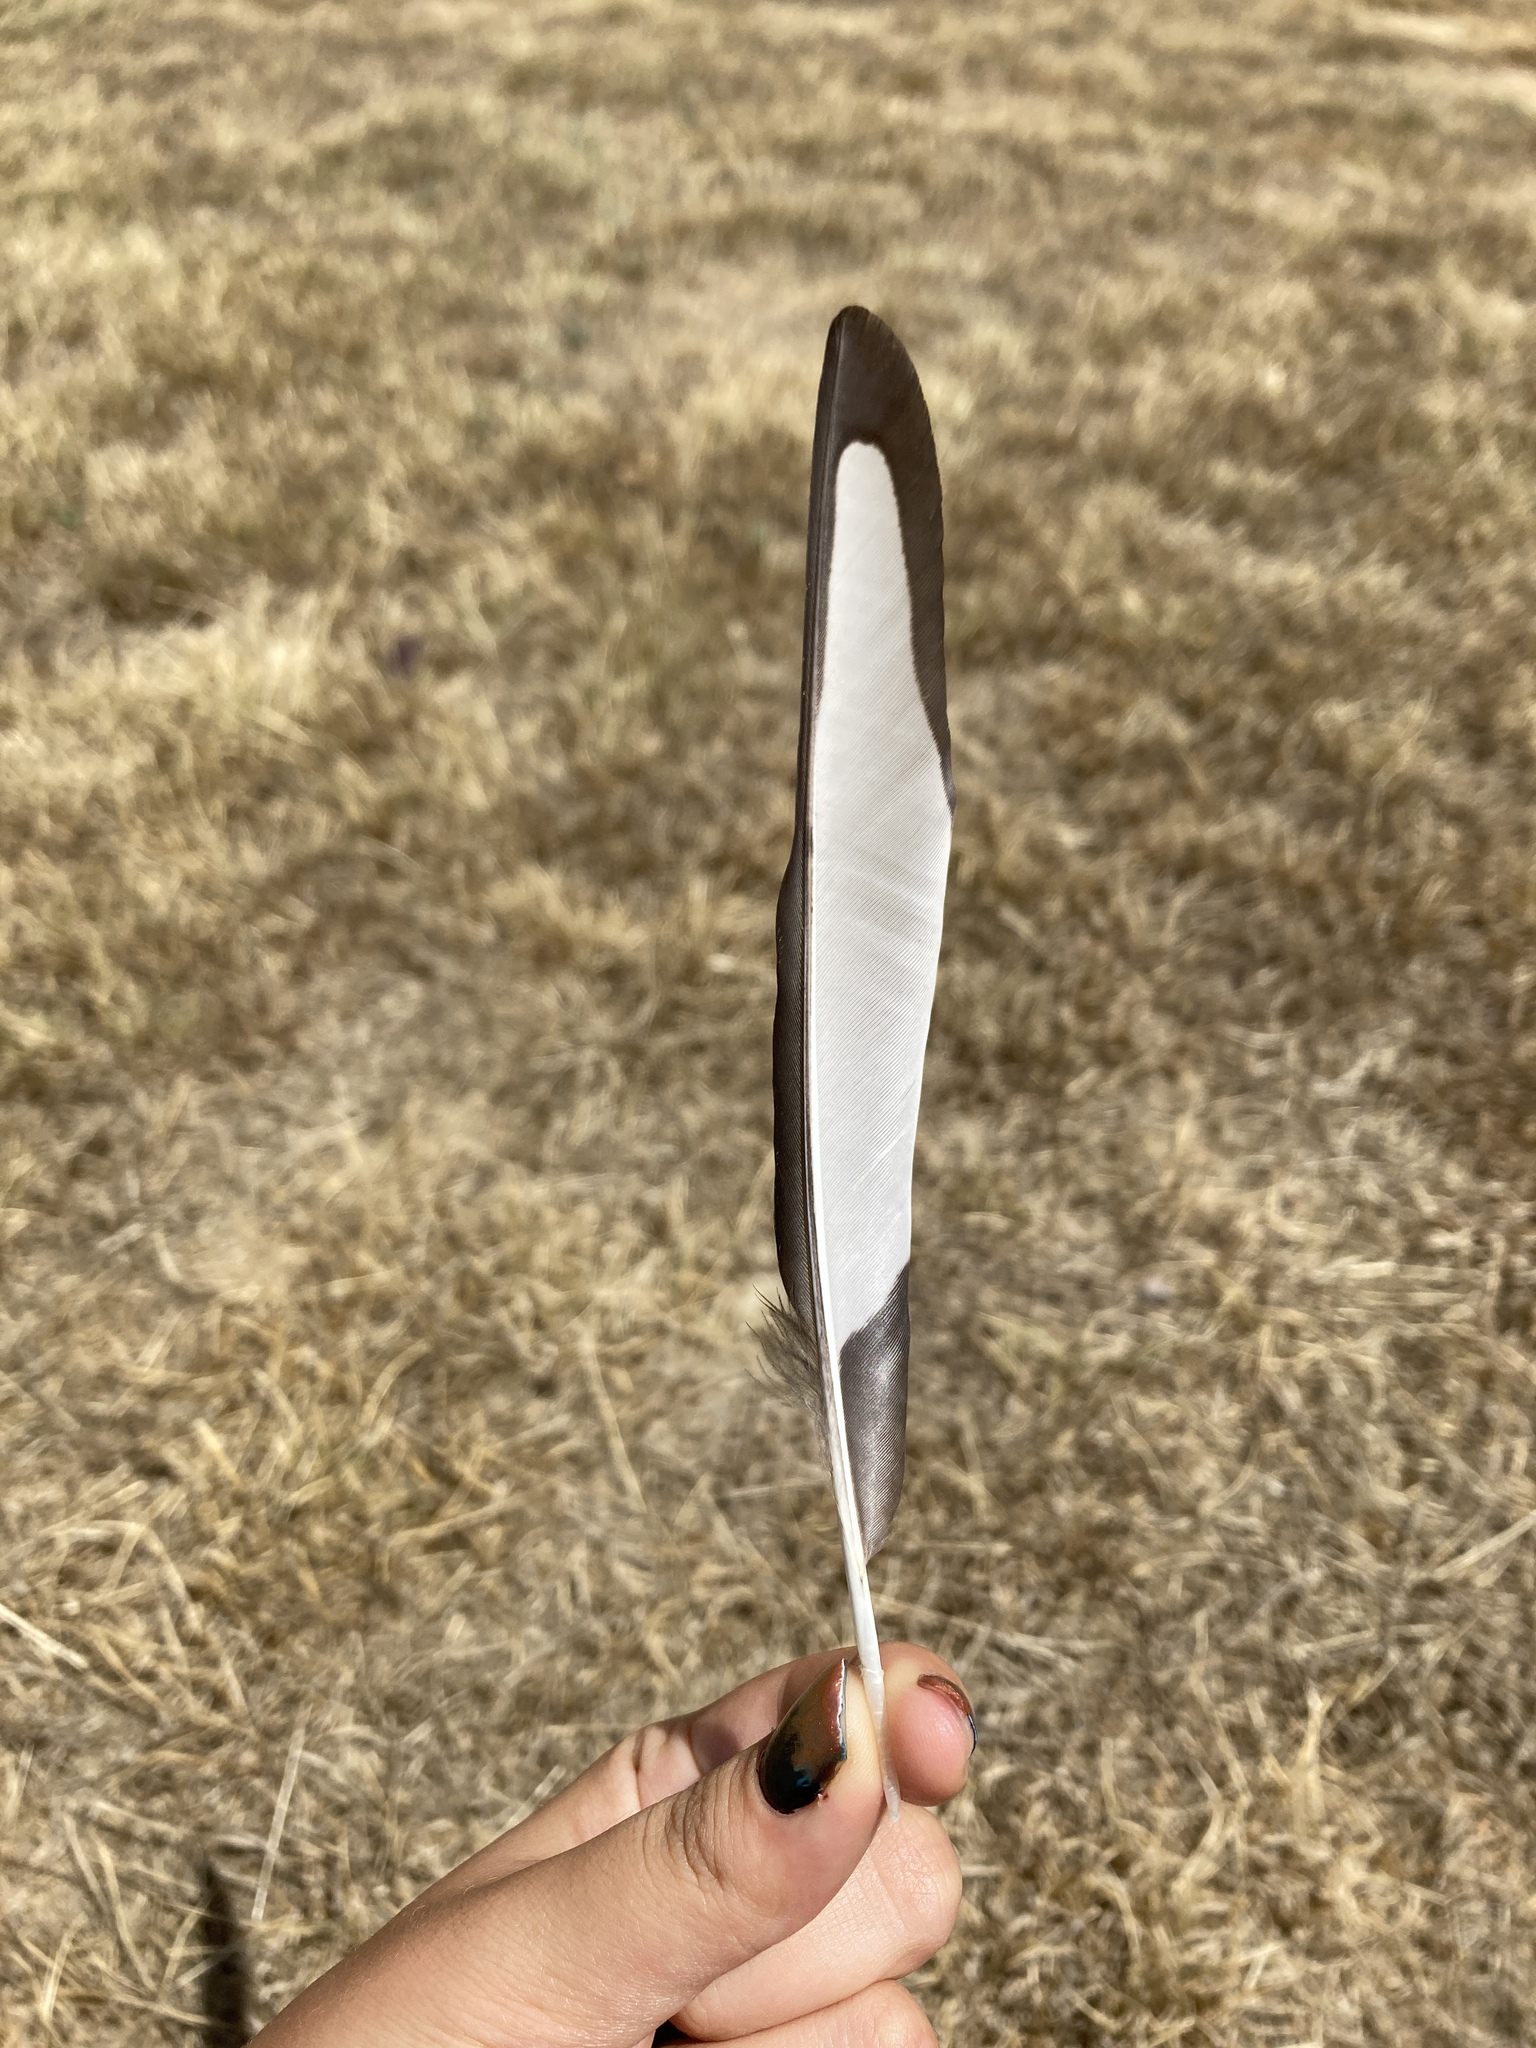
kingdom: Animalia
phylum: Chordata
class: Aves
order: Passeriformes
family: Corvidae
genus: Pica
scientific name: Pica pica
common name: Eurasian magpie
